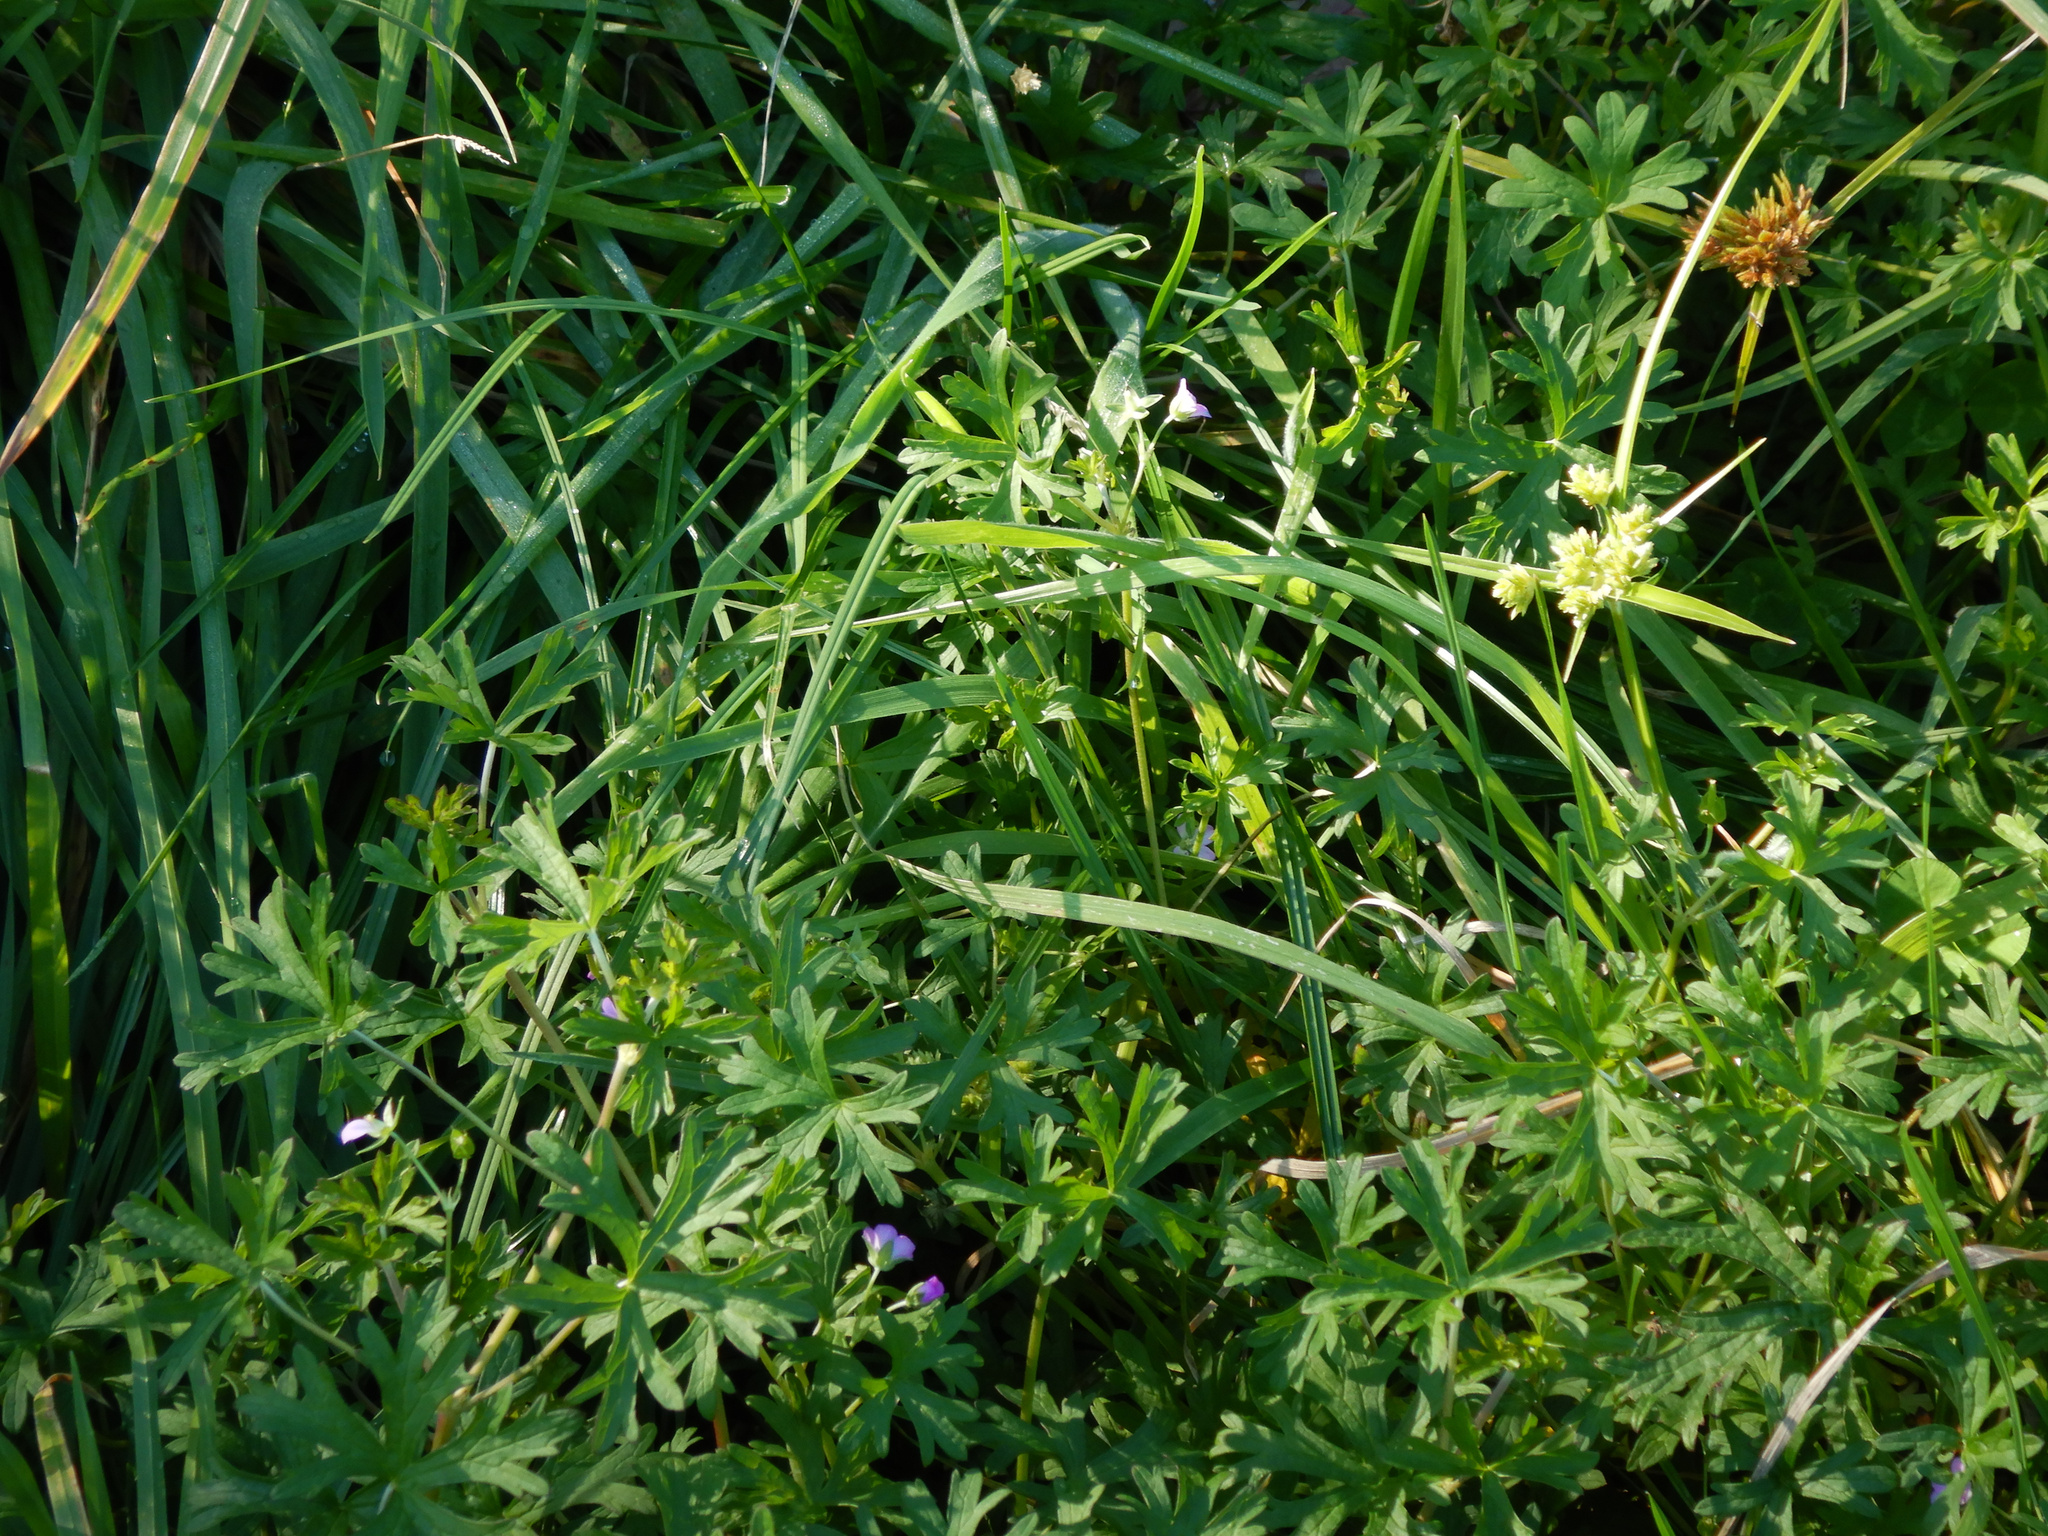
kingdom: Plantae
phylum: Tracheophyta
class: Liliopsida
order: Poales
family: Cyperaceae
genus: Cyperus
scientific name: Cyperus eragrostis
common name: Tall flatsedge
